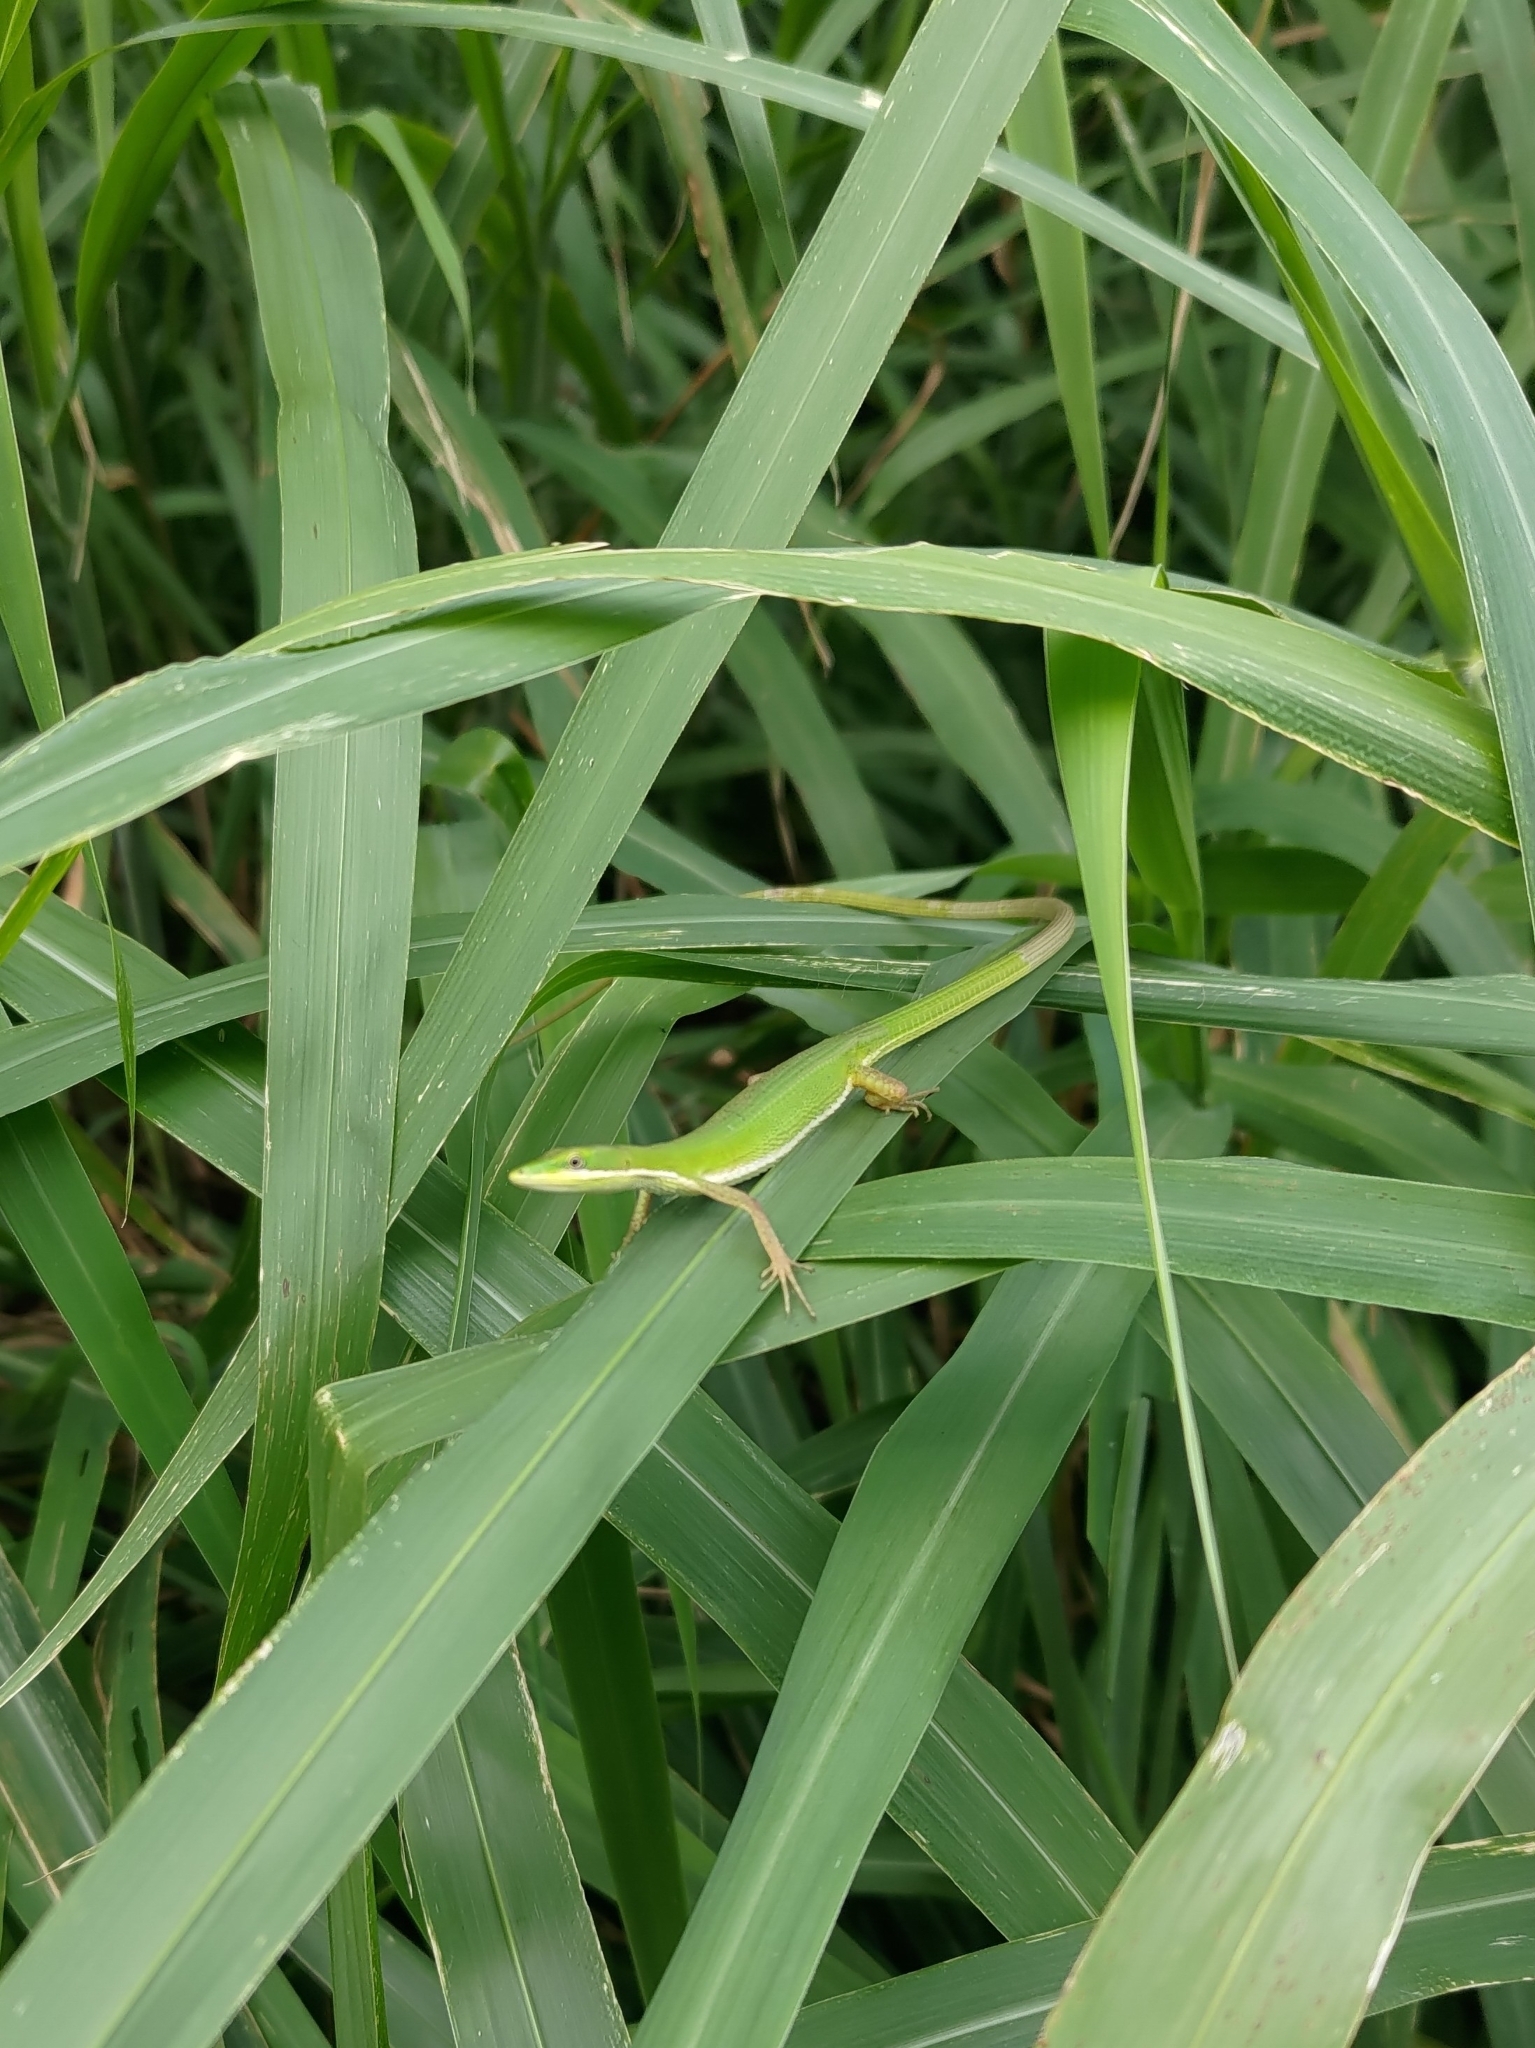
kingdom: Animalia
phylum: Chordata
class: Squamata
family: Lacertidae
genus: Takydromus
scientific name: Takydromus sauteri
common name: Koshun grass lizard
